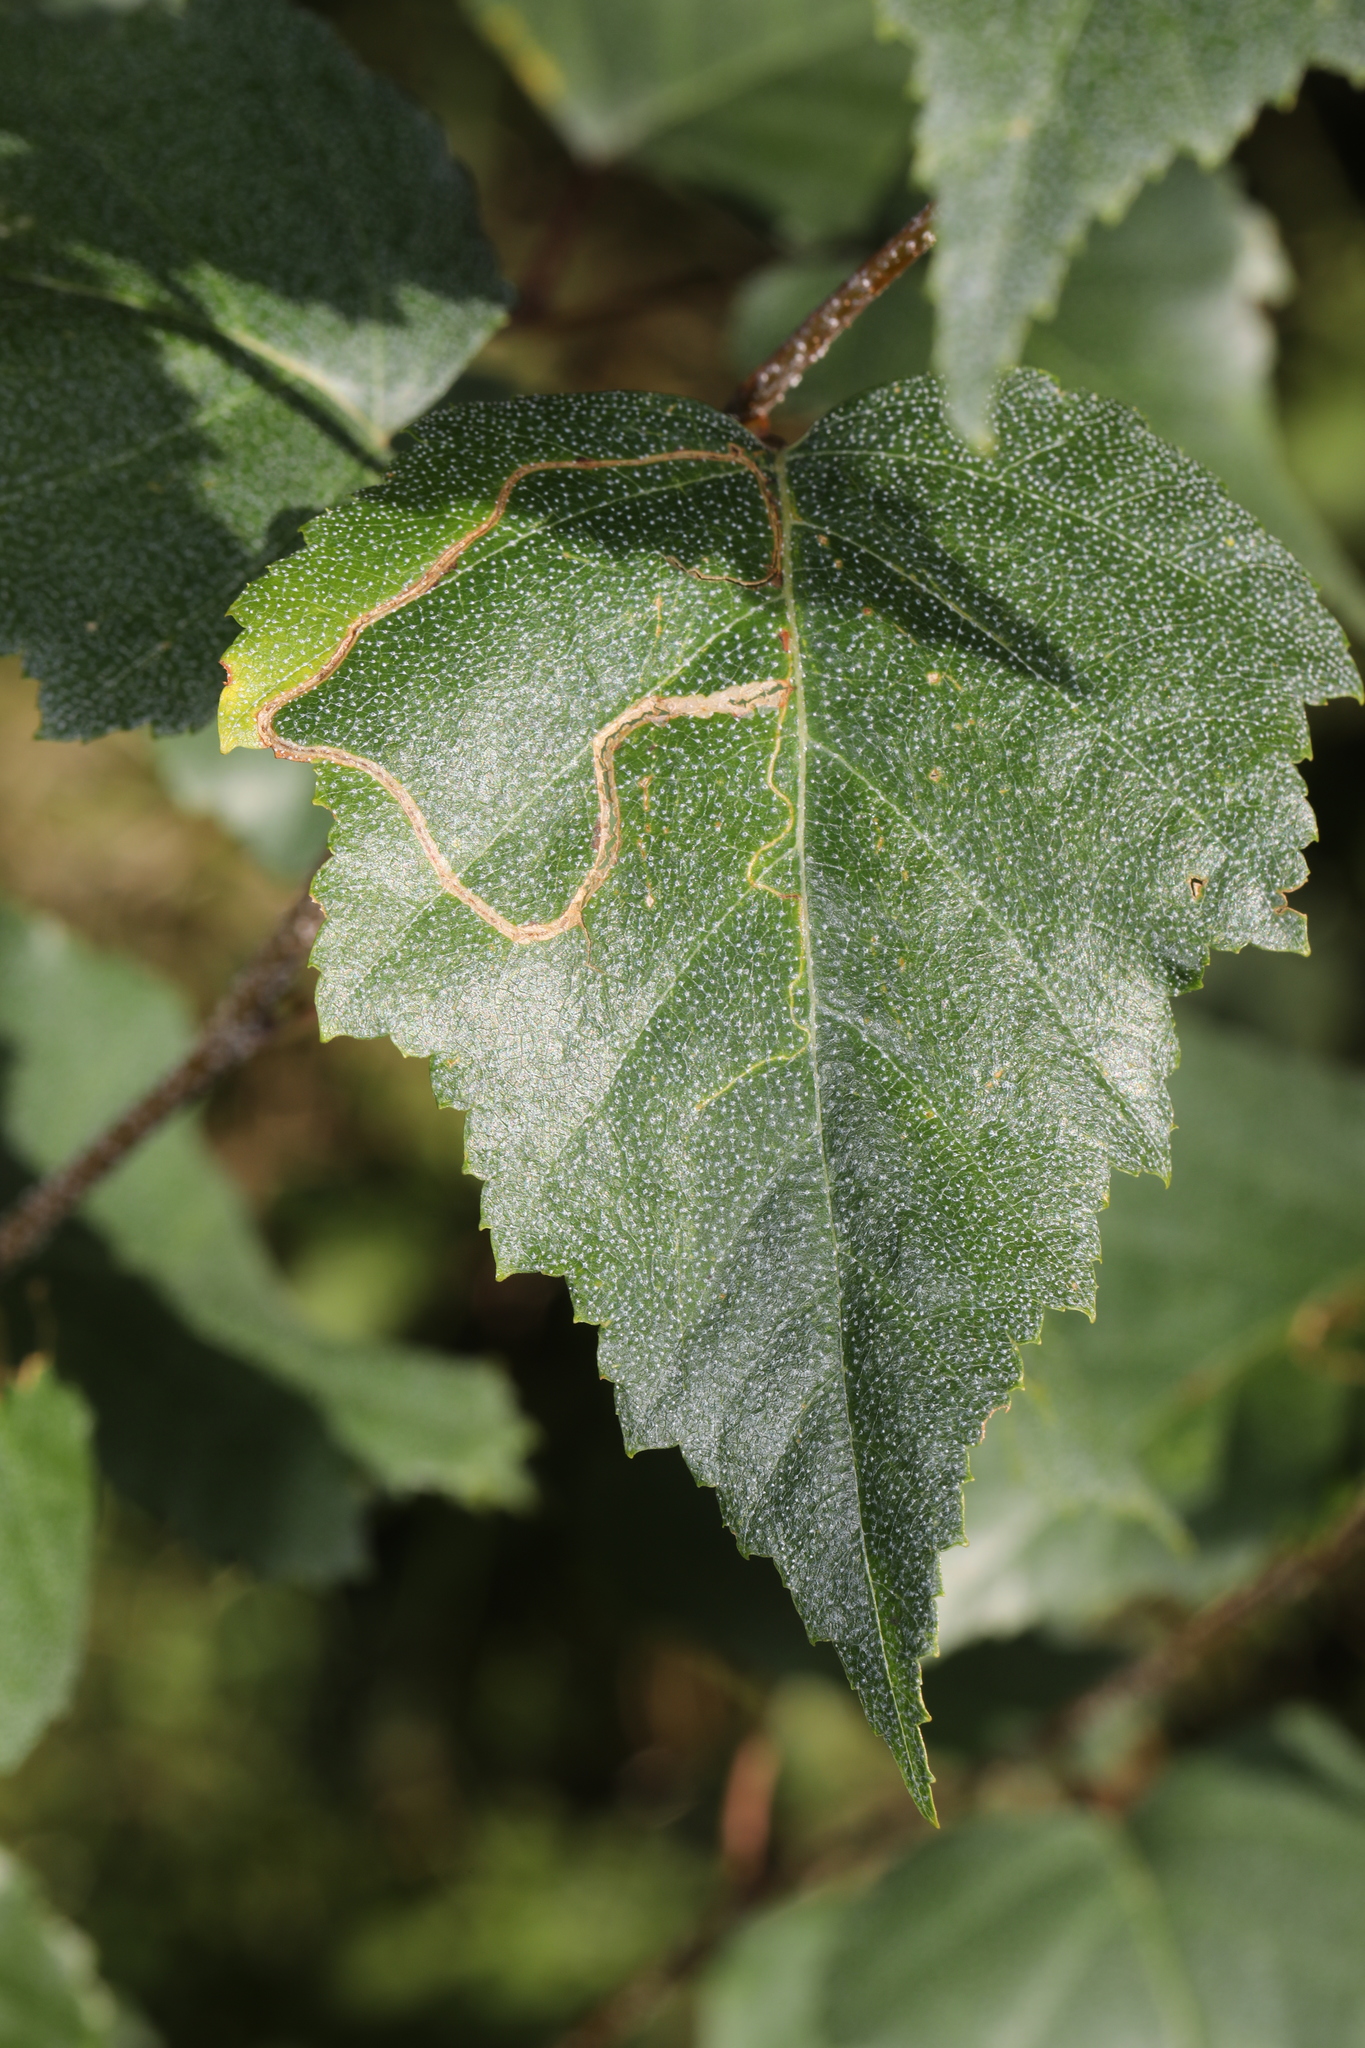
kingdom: Animalia
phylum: Arthropoda
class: Insecta
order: Lepidoptera
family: Lyonetiidae
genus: Lyonetia
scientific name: Lyonetia clerkella
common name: Apple leaf miner
